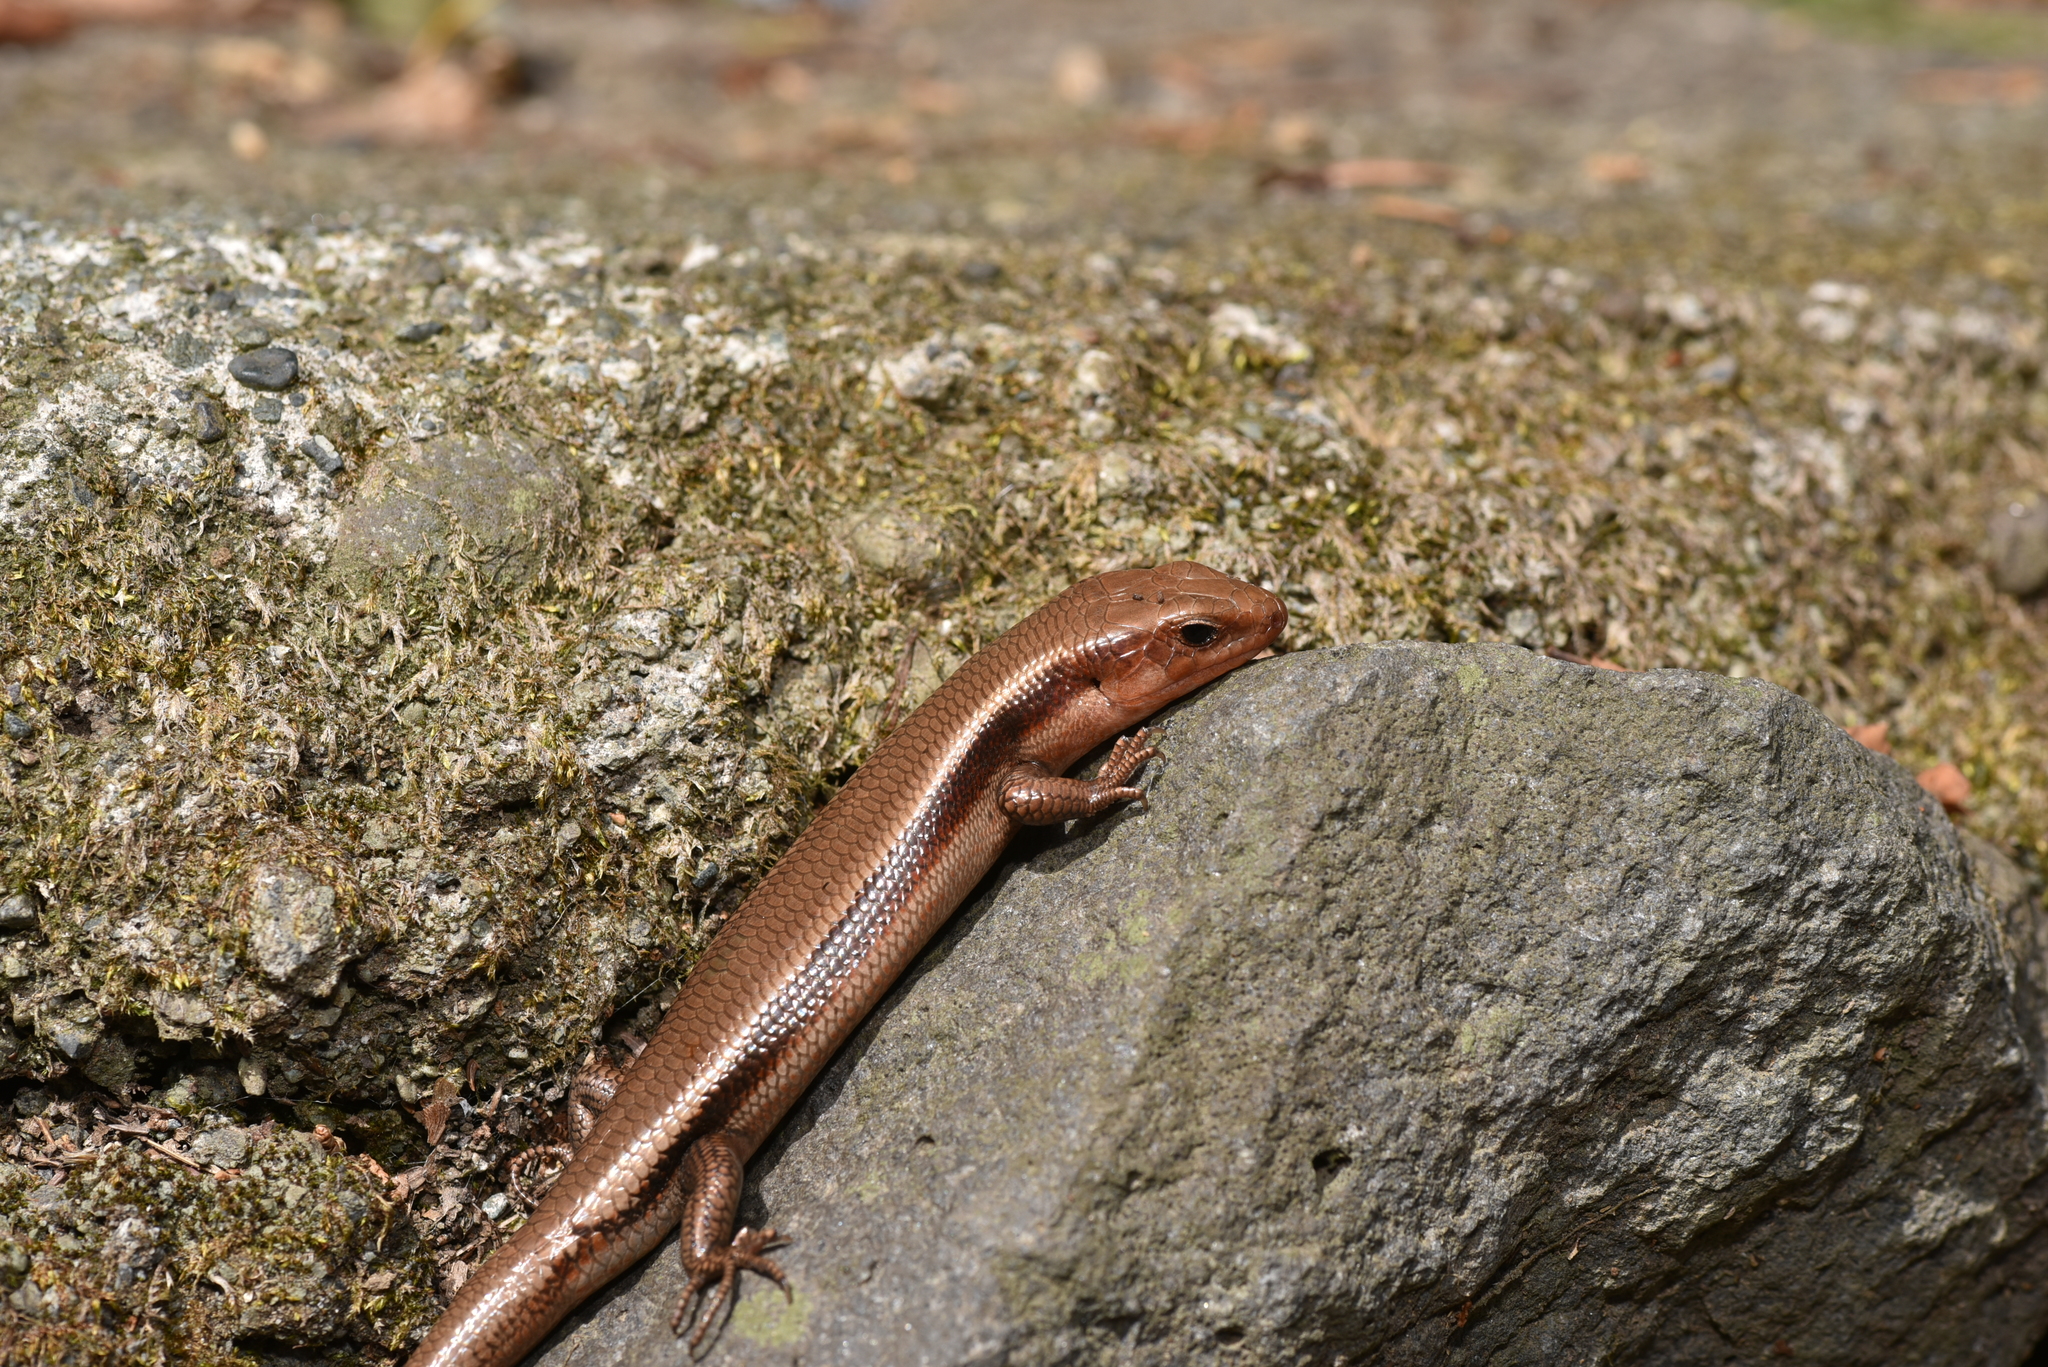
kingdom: Animalia
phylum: Chordata
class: Squamata
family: Scincidae
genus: Plestiodon
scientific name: Plestiodon finitimus
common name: Far eastern skink
